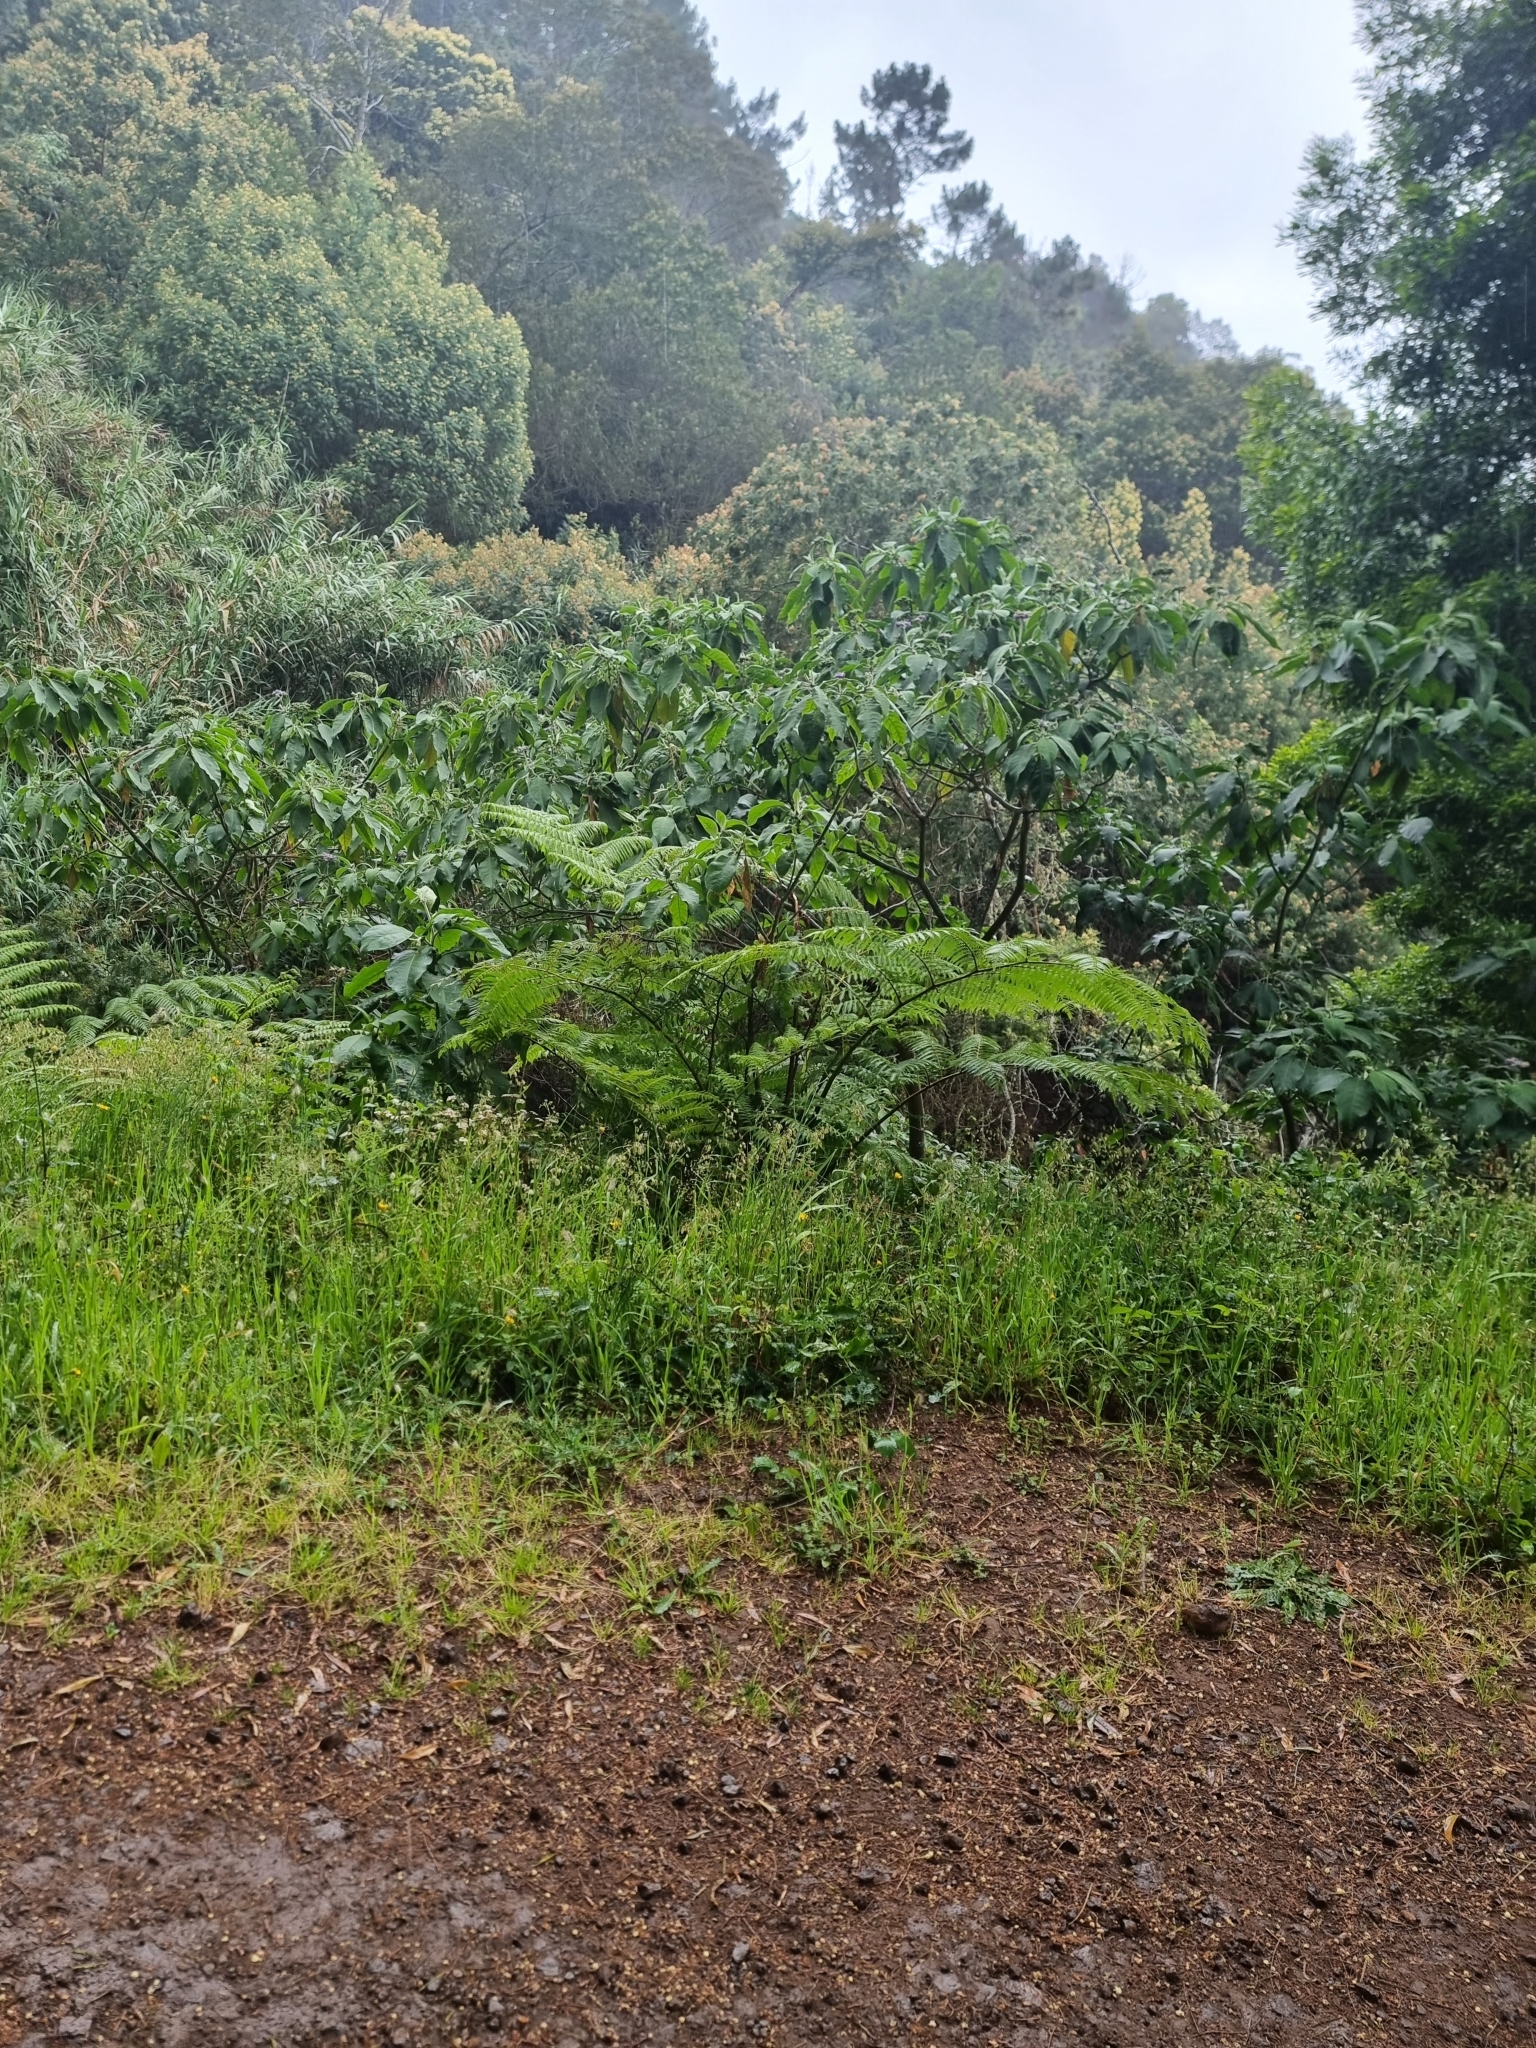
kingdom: Plantae
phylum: Tracheophyta
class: Polypodiopsida
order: Cyatheales
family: Cyatheaceae
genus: Sphaeropteris
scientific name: Sphaeropteris cooperi
